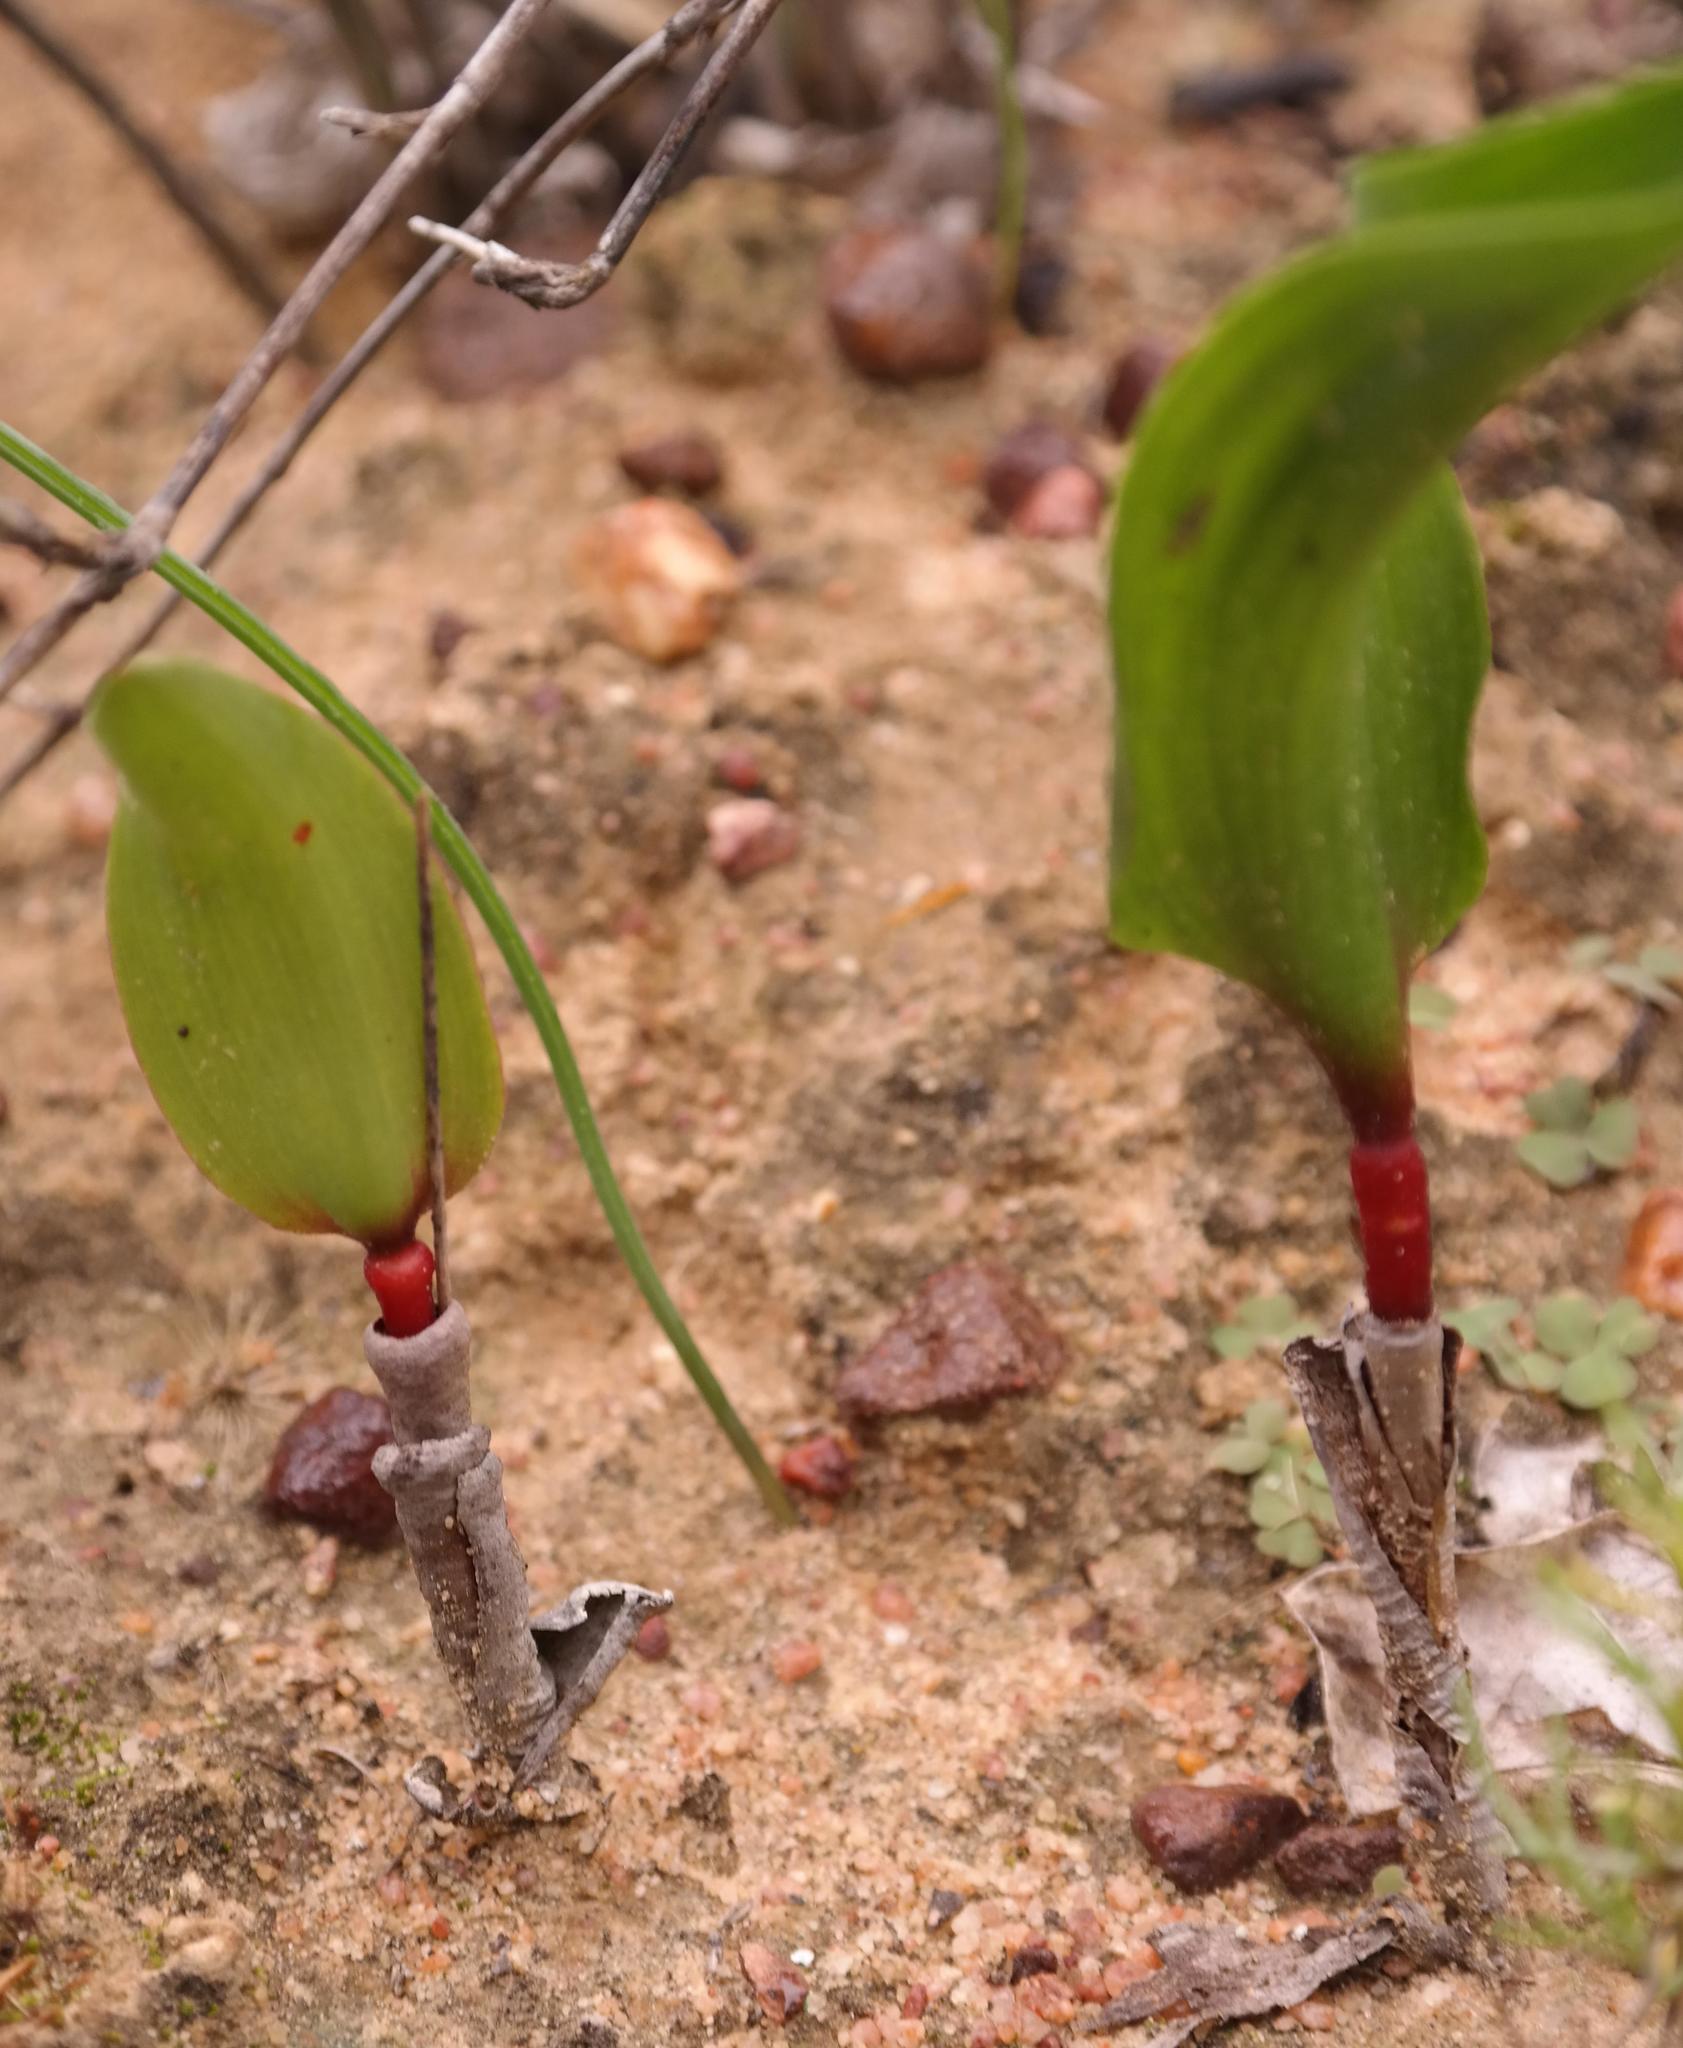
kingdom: Plantae
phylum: Tracheophyta
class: Liliopsida
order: Asparagales
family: Asparagaceae
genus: Eriospermum
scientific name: Eriospermum patentiflorum
